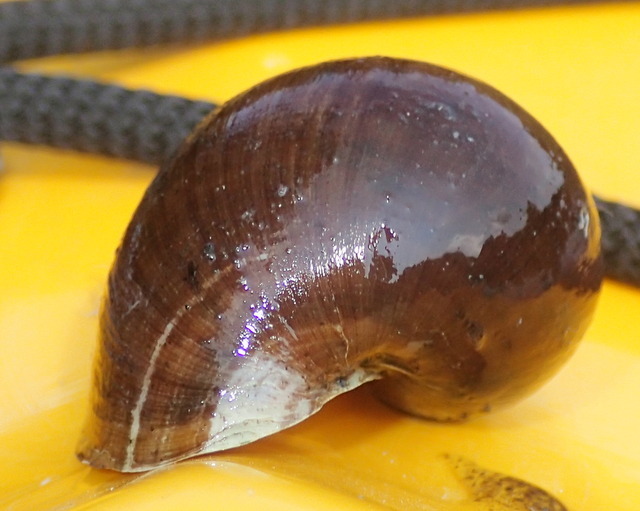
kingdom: Animalia
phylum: Mollusca
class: Gastropoda
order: Architaenioglossa
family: Ampullariidae
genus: Pomacea
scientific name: Pomacea paludosa
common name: Florida applesnail
